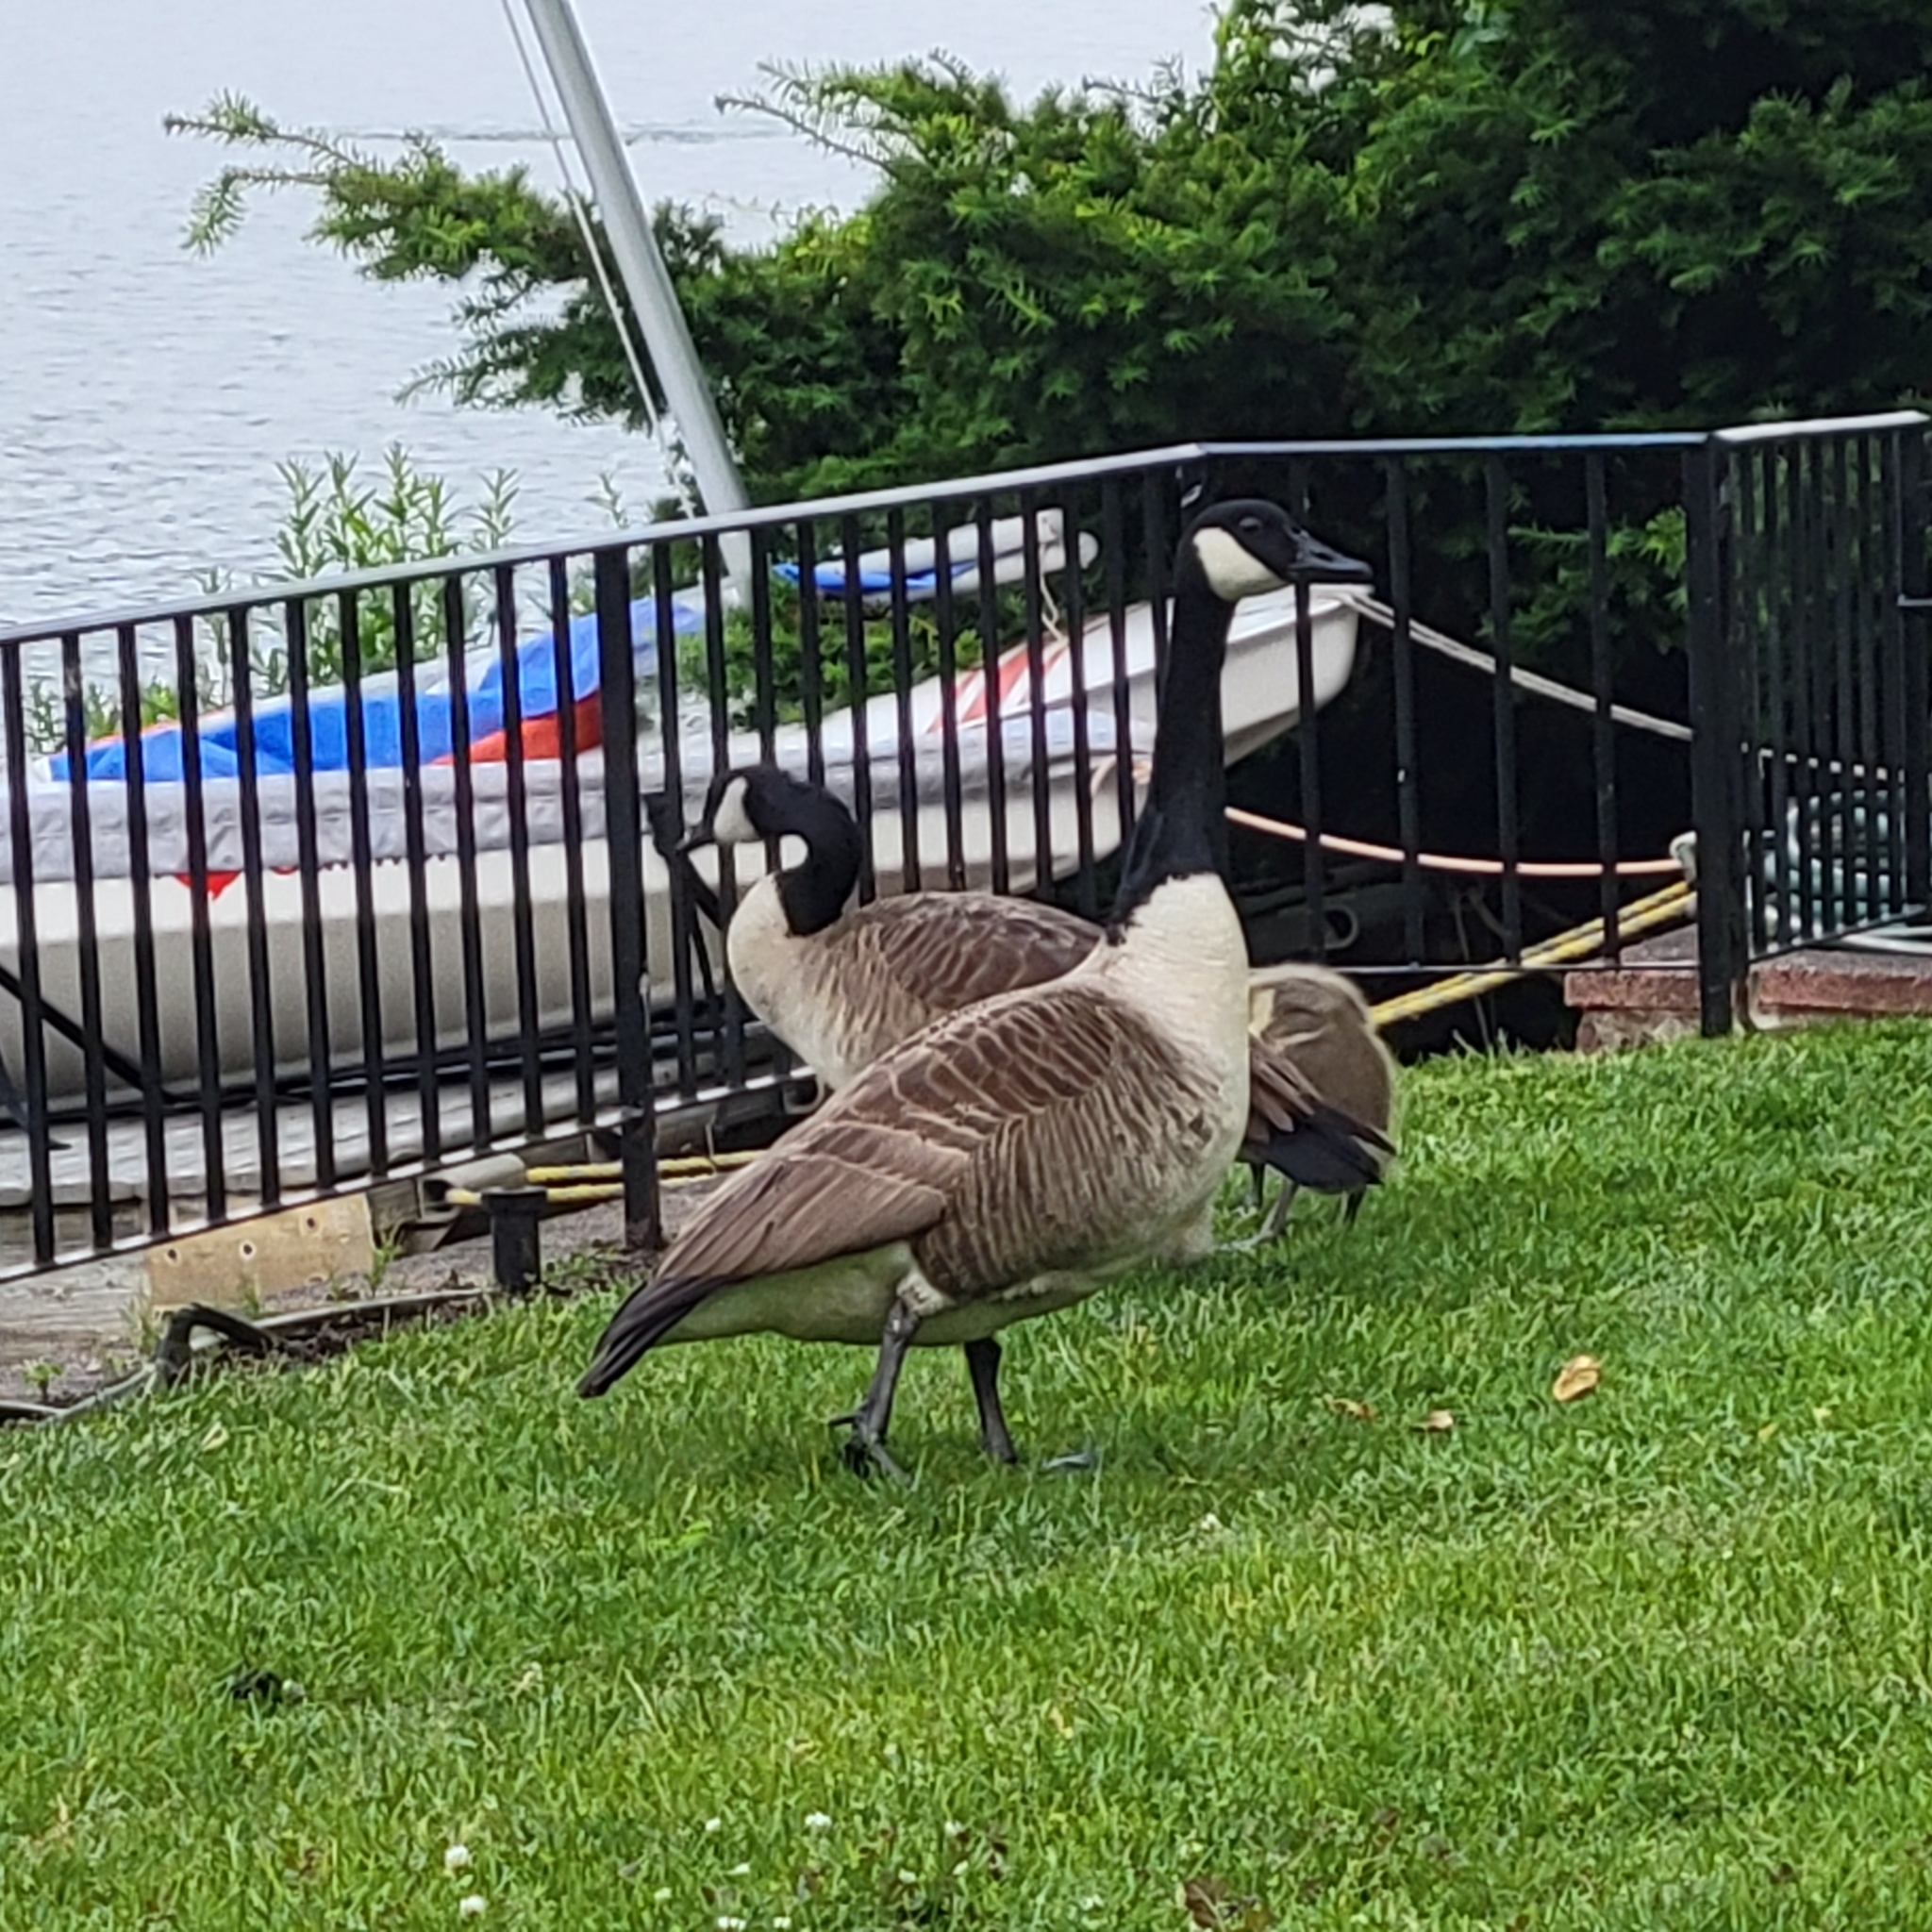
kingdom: Animalia
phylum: Chordata
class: Aves
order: Anseriformes
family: Anatidae
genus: Branta
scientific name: Branta canadensis
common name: Canada goose
